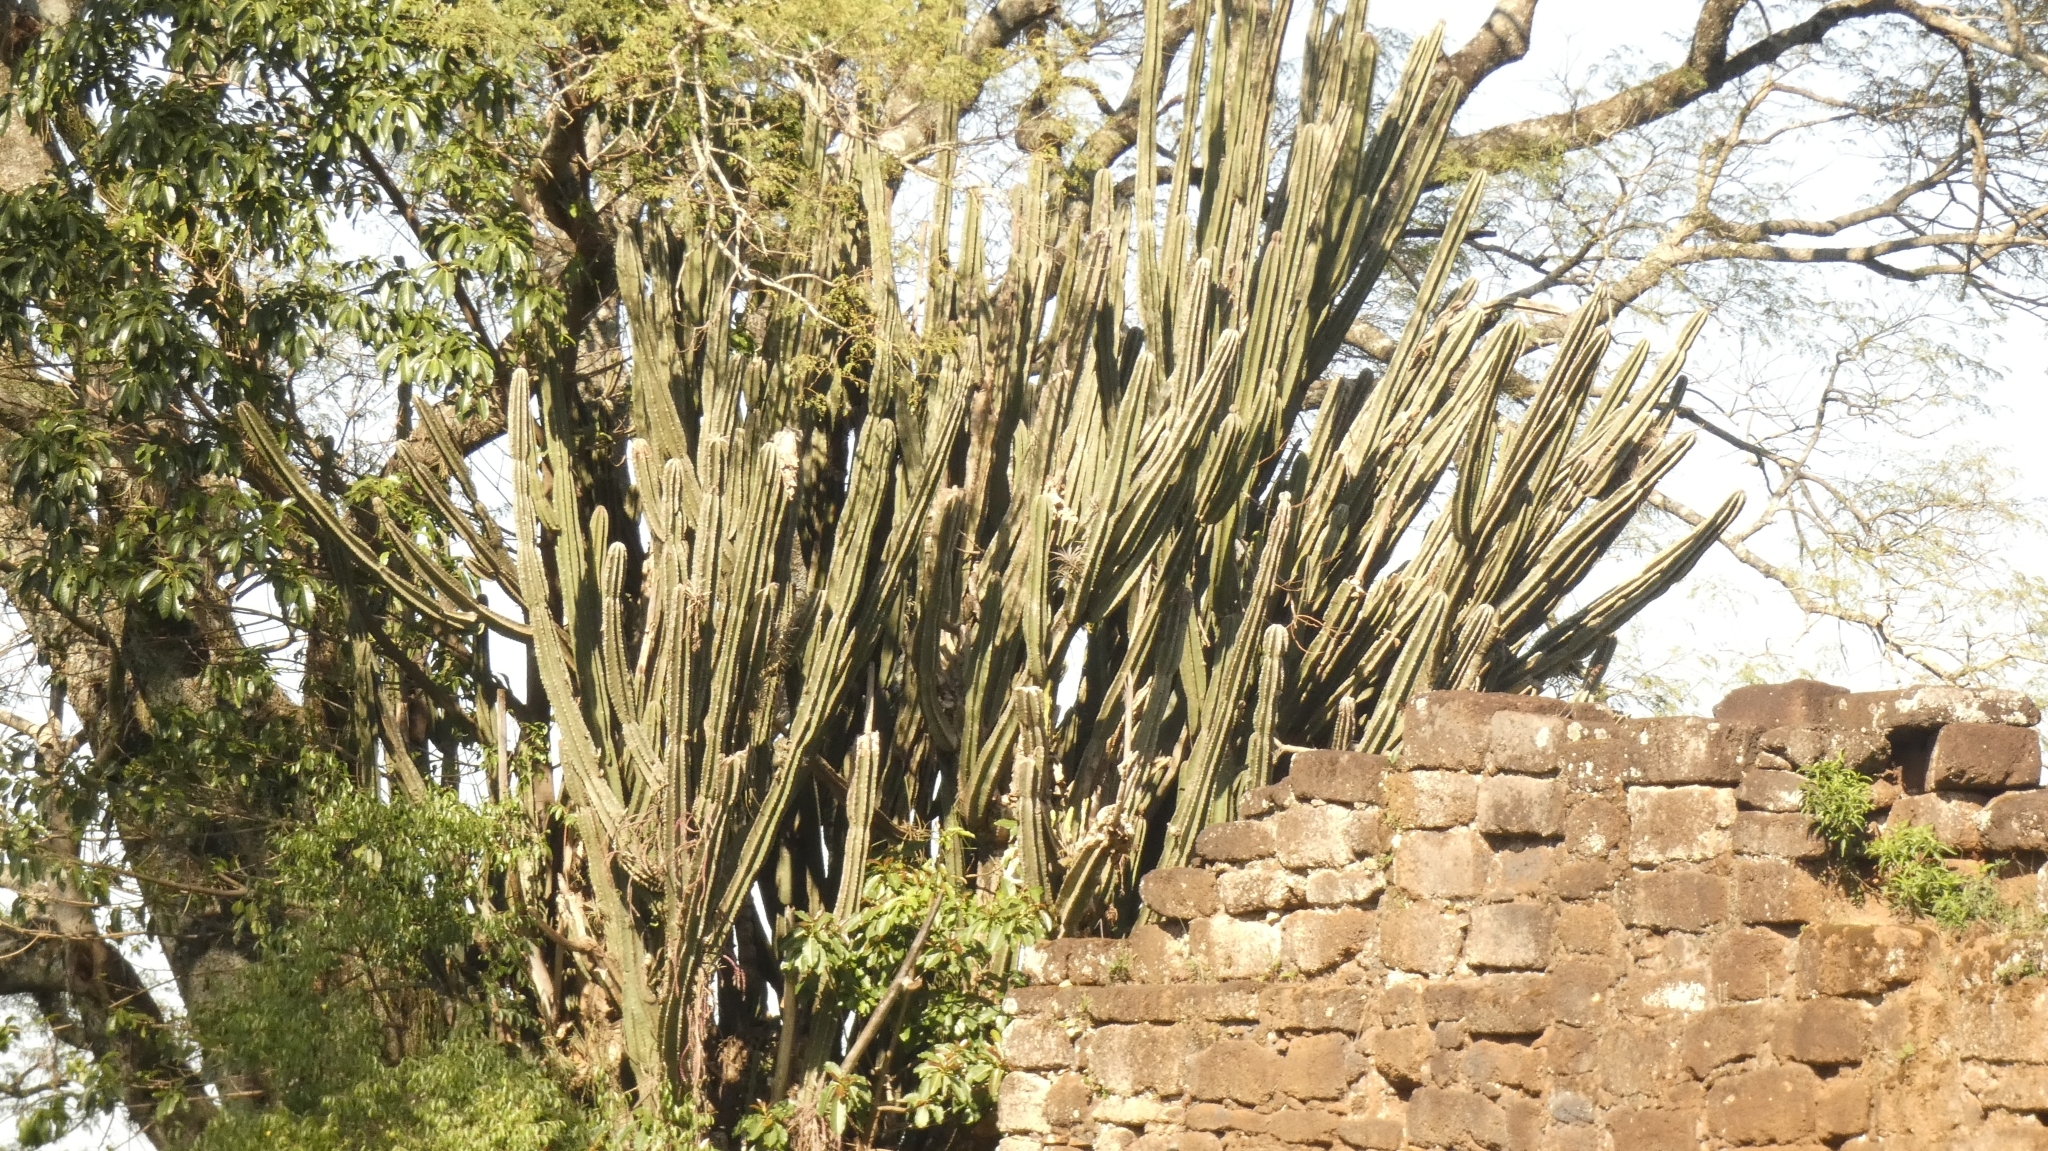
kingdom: Plantae
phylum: Tracheophyta
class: Magnoliopsida
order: Caryophyllales
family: Cactaceae
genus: Cereus
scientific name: Cereus hildmannianus
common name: Hedge cactus
